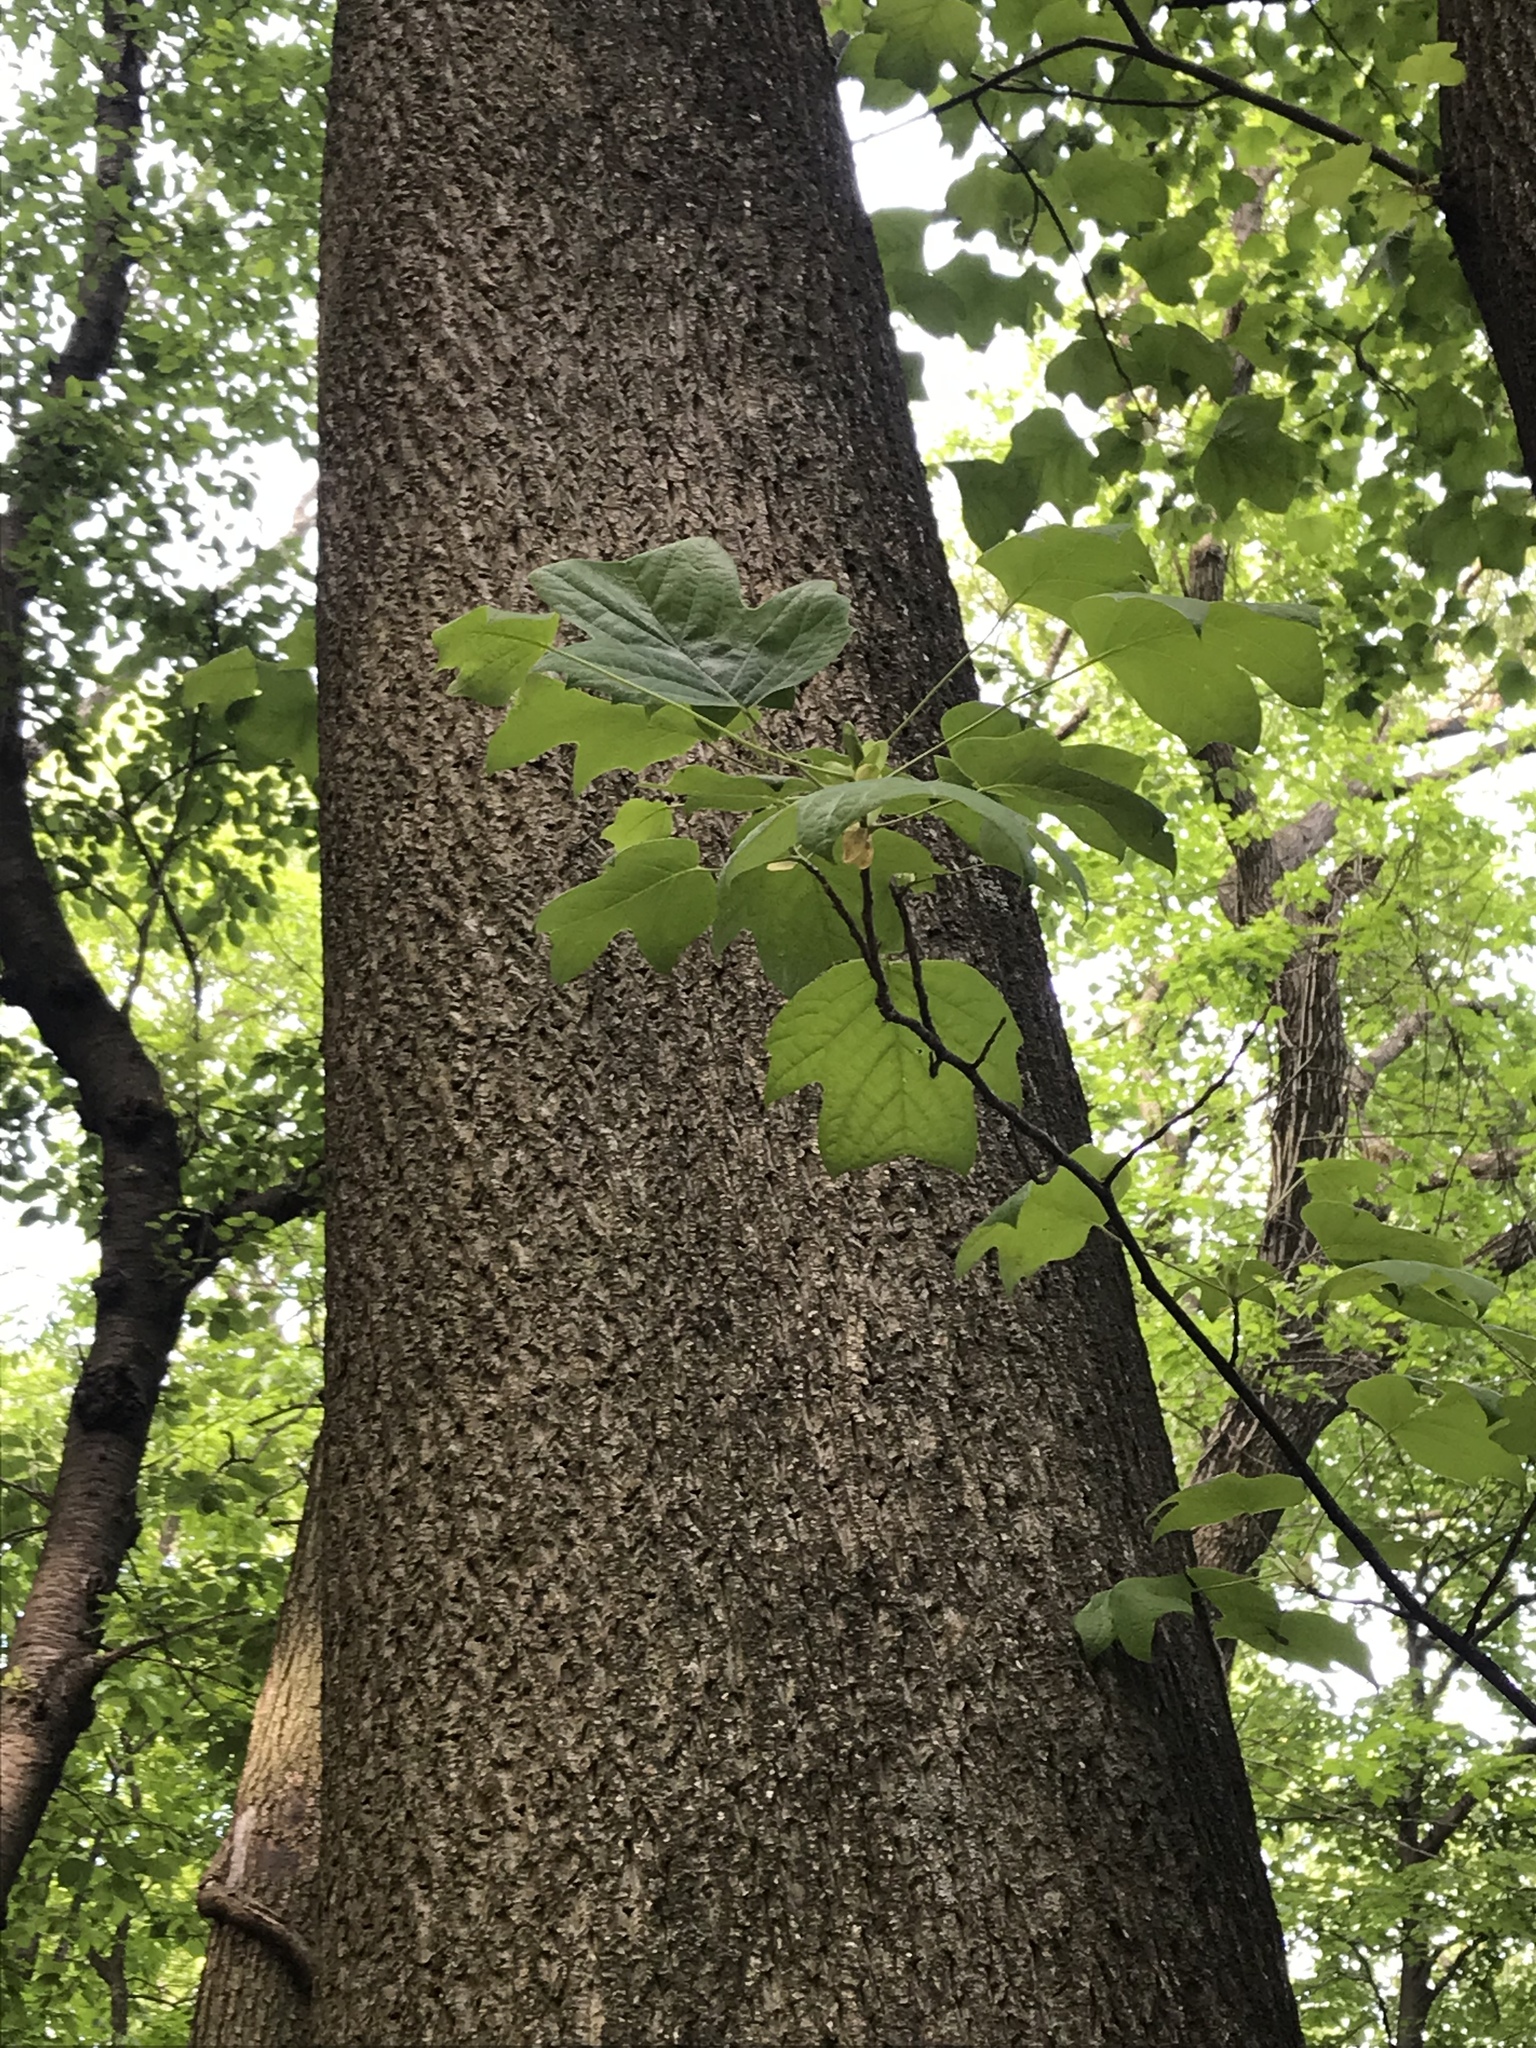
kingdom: Plantae
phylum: Tracheophyta
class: Magnoliopsida
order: Magnoliales
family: Magnoliaceae
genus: Liriodendron
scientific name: Liriodendron tulipifera
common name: Tulip tree
